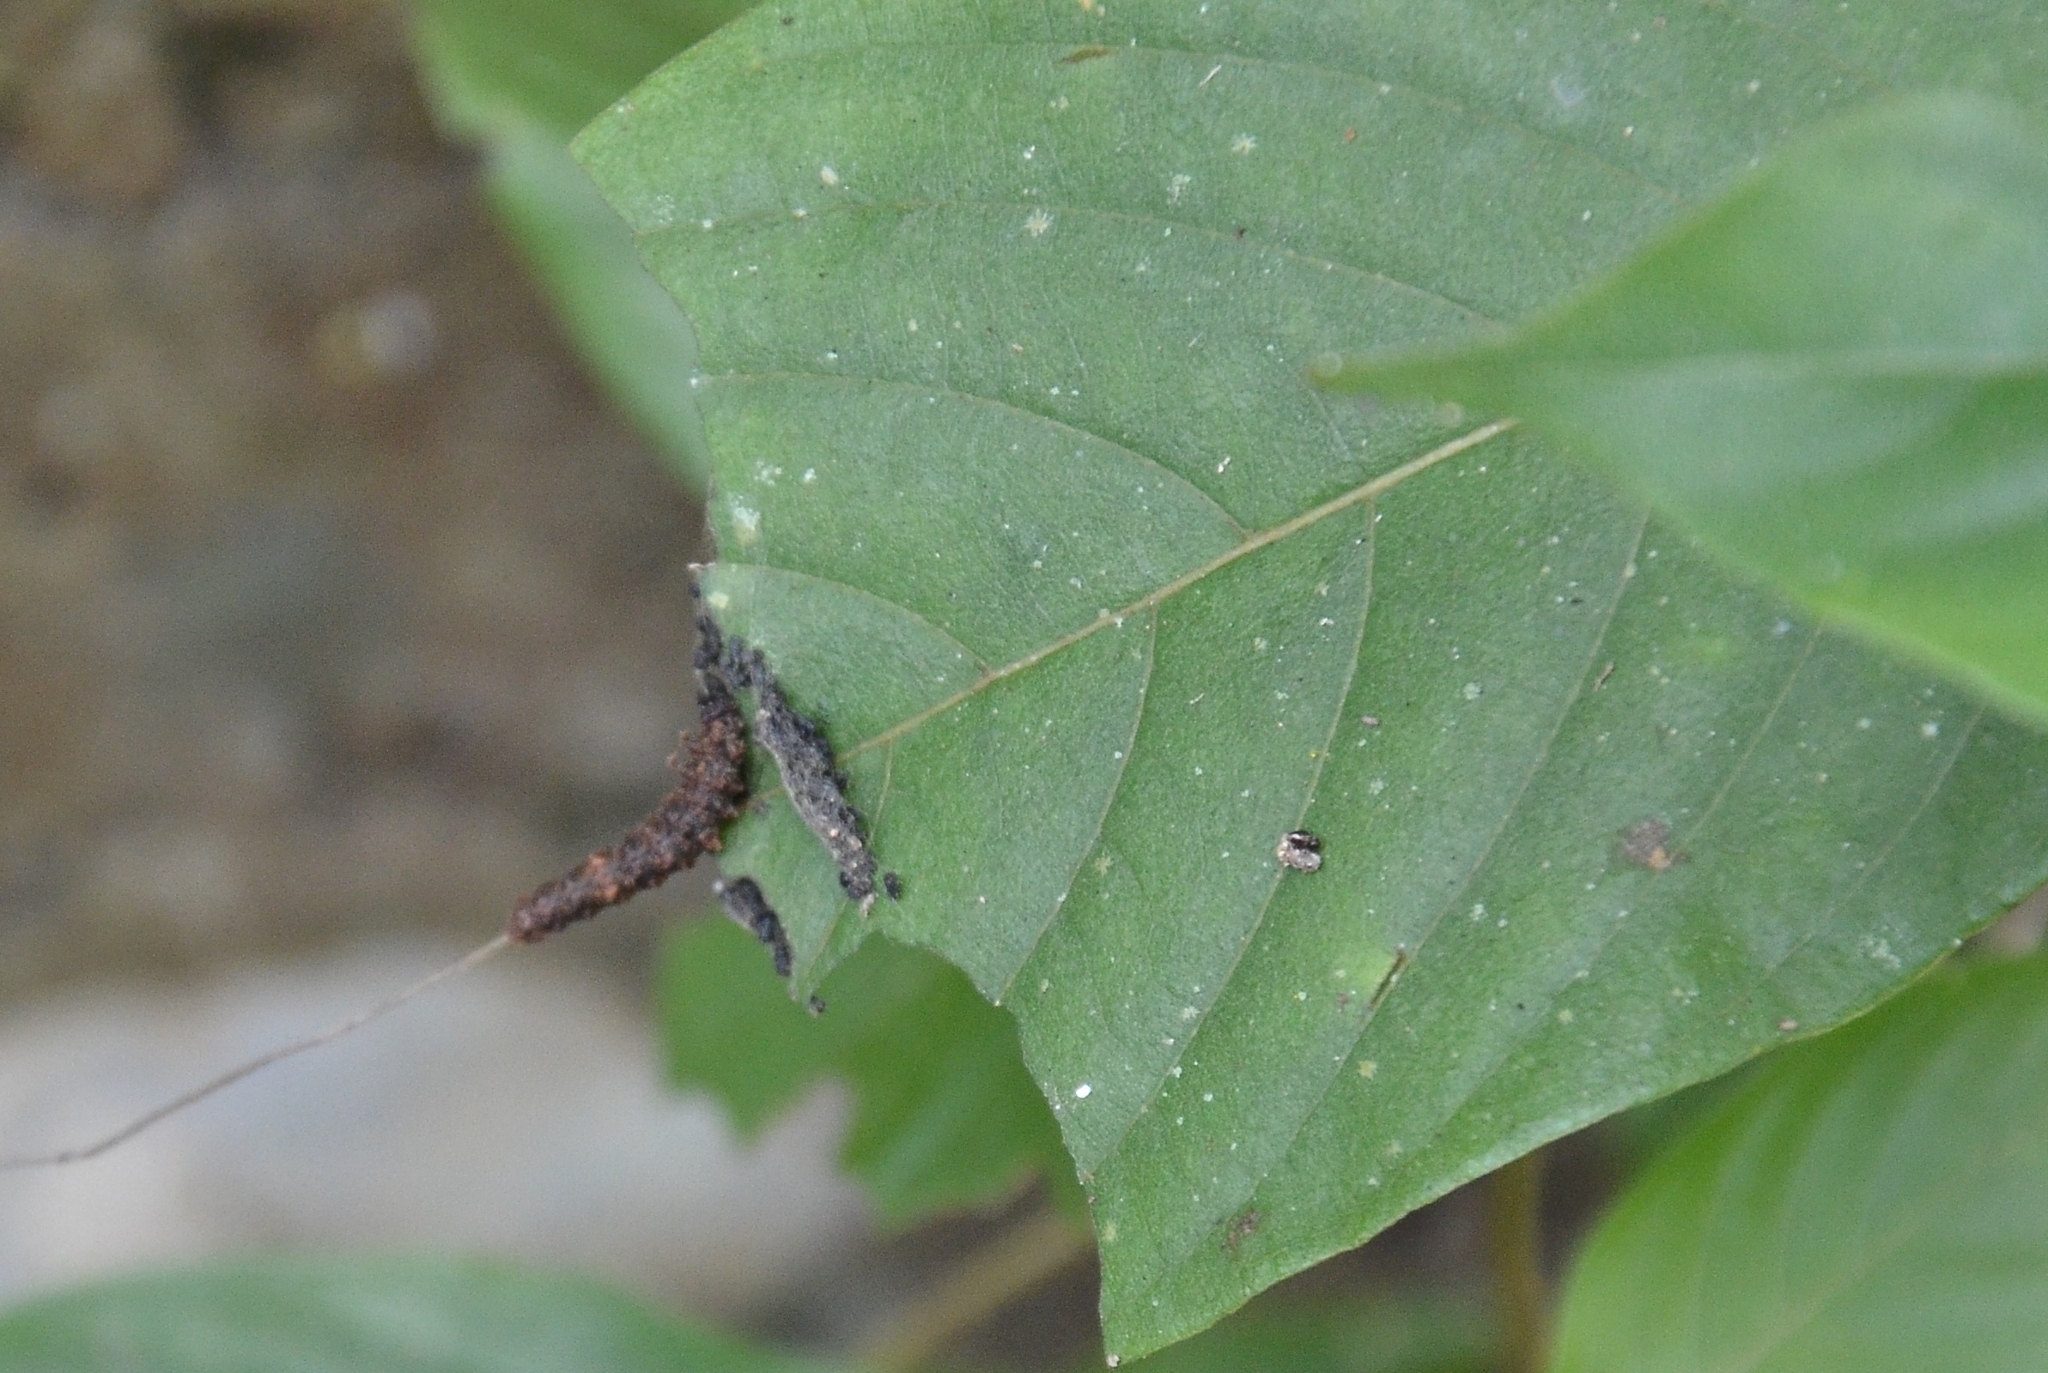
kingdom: Animalia
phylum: Arthropoda
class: Insecta
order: Lepidoptera
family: Nymphalidae
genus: Limenitis
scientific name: Limenitis Moduza procris
